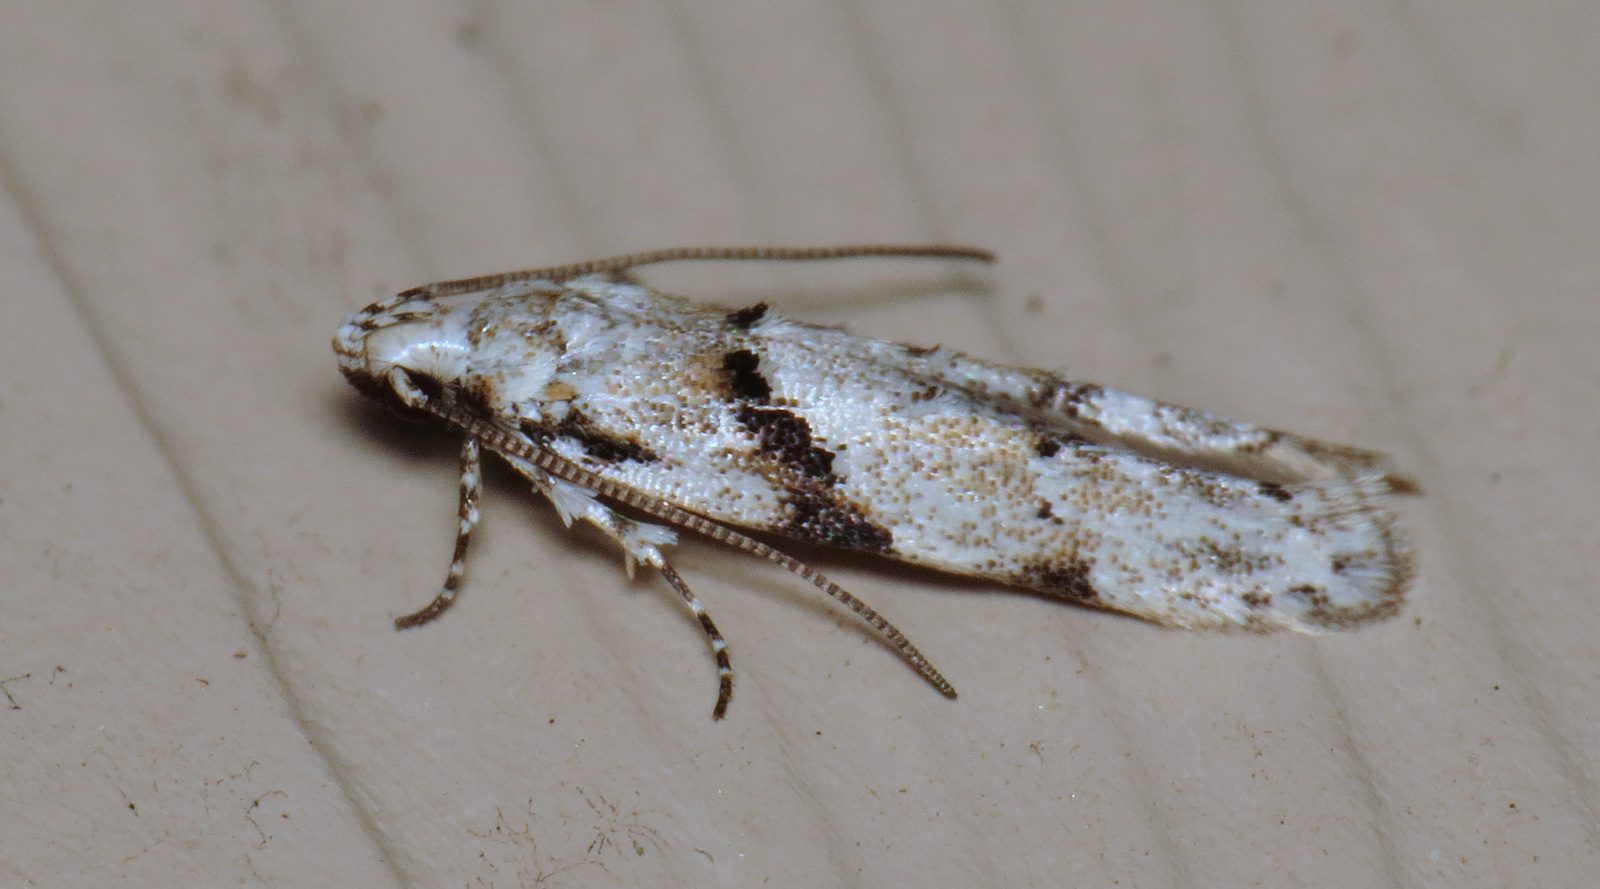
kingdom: Animalia
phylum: Arthropoda
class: Insecta
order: Lepidoptera
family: Gelechiidae
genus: Arogalea
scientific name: Arogalea cristifasciella
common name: White stripe-backed moth
